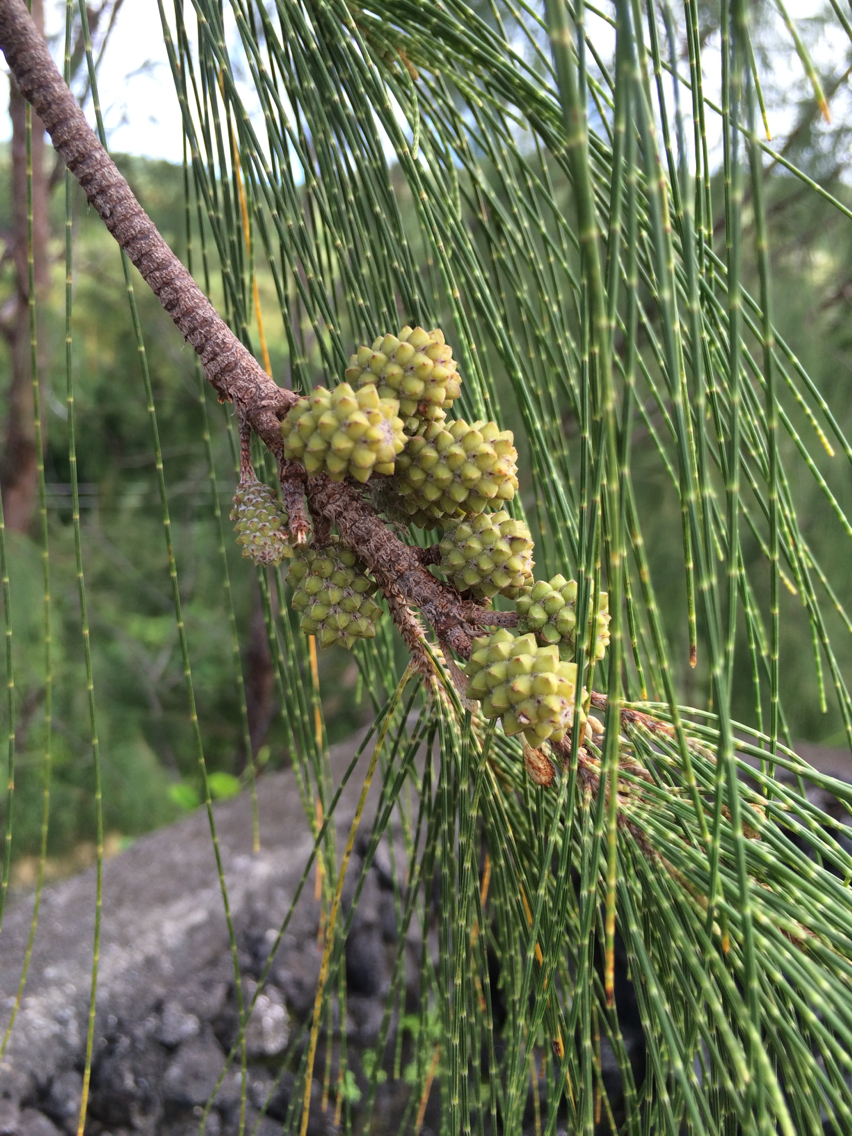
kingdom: Plantae
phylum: Tracheophyta
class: Magnoliopsida
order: Fagales
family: Casuarinaceae
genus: Casuarina
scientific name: Casuarina equisetifolia
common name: Beach sheoak
